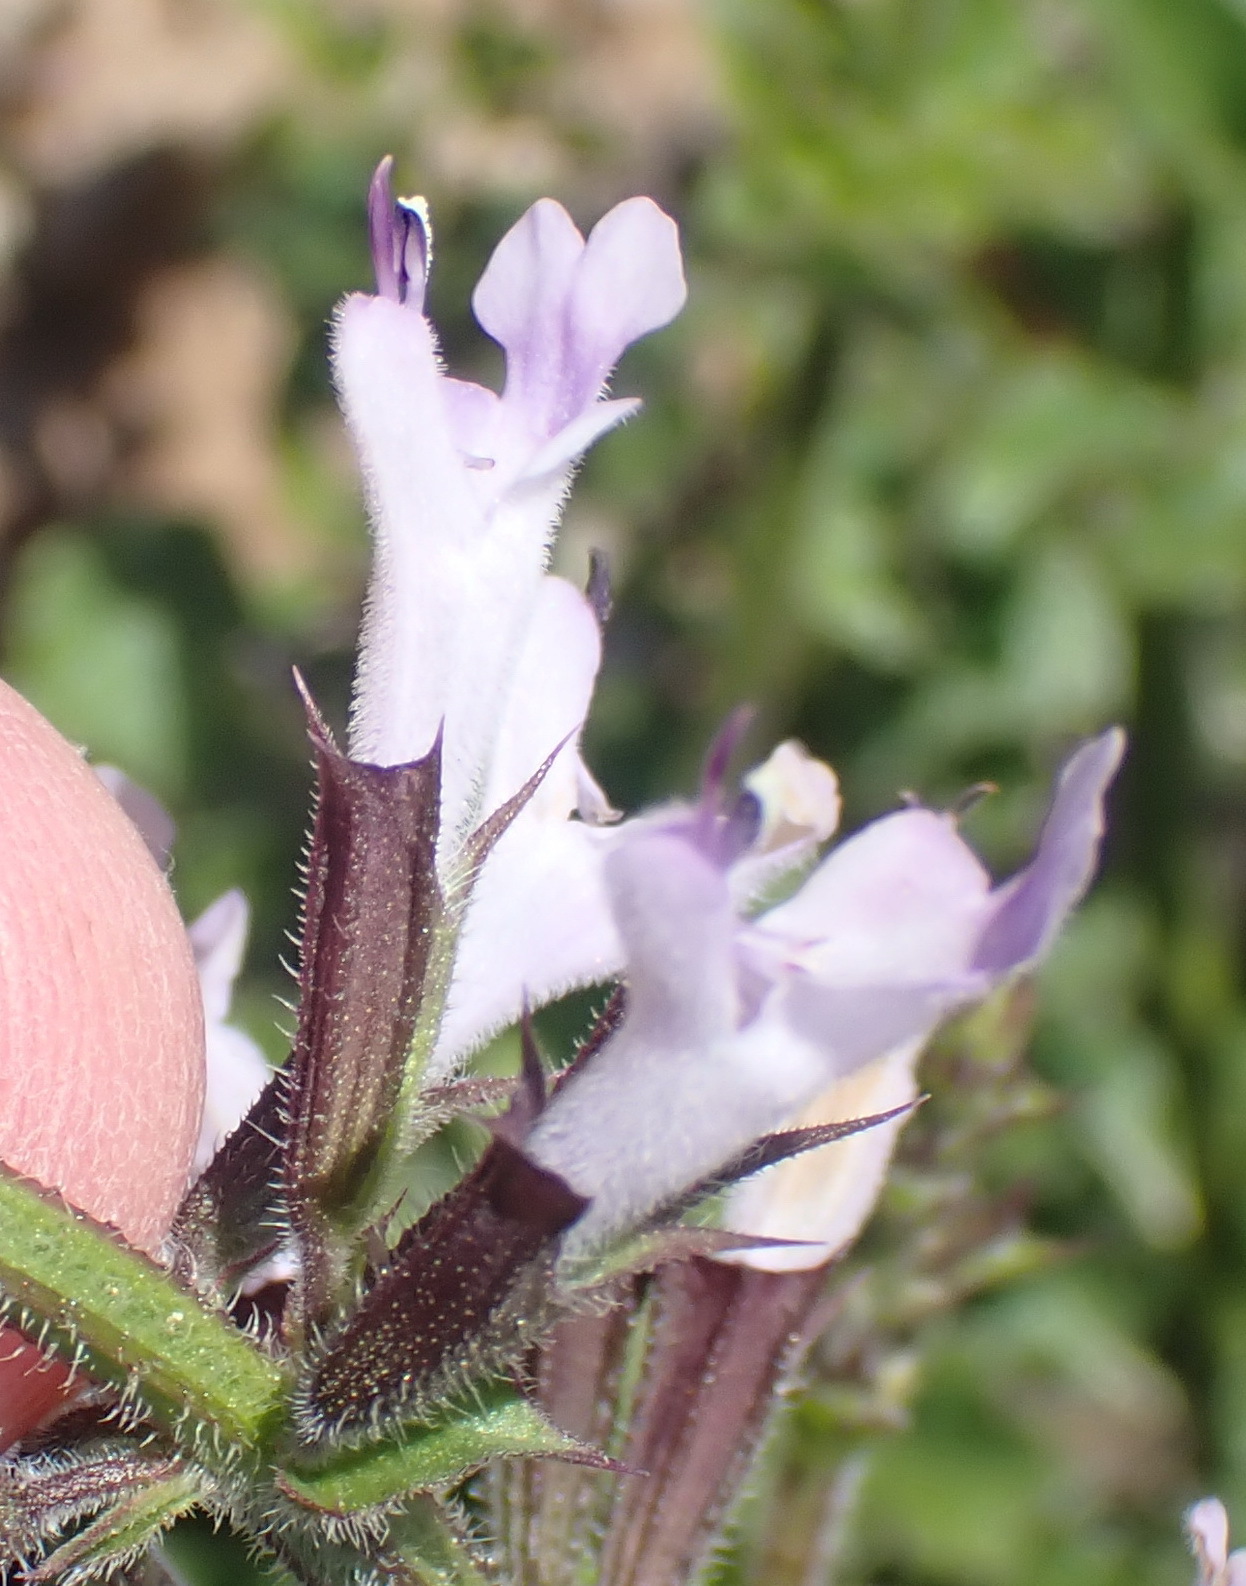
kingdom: Plantae
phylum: Tracheophyta
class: Magnoliopsida
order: Lamiales
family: Lamiaceae
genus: Salvia
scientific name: Salvia obtusata
